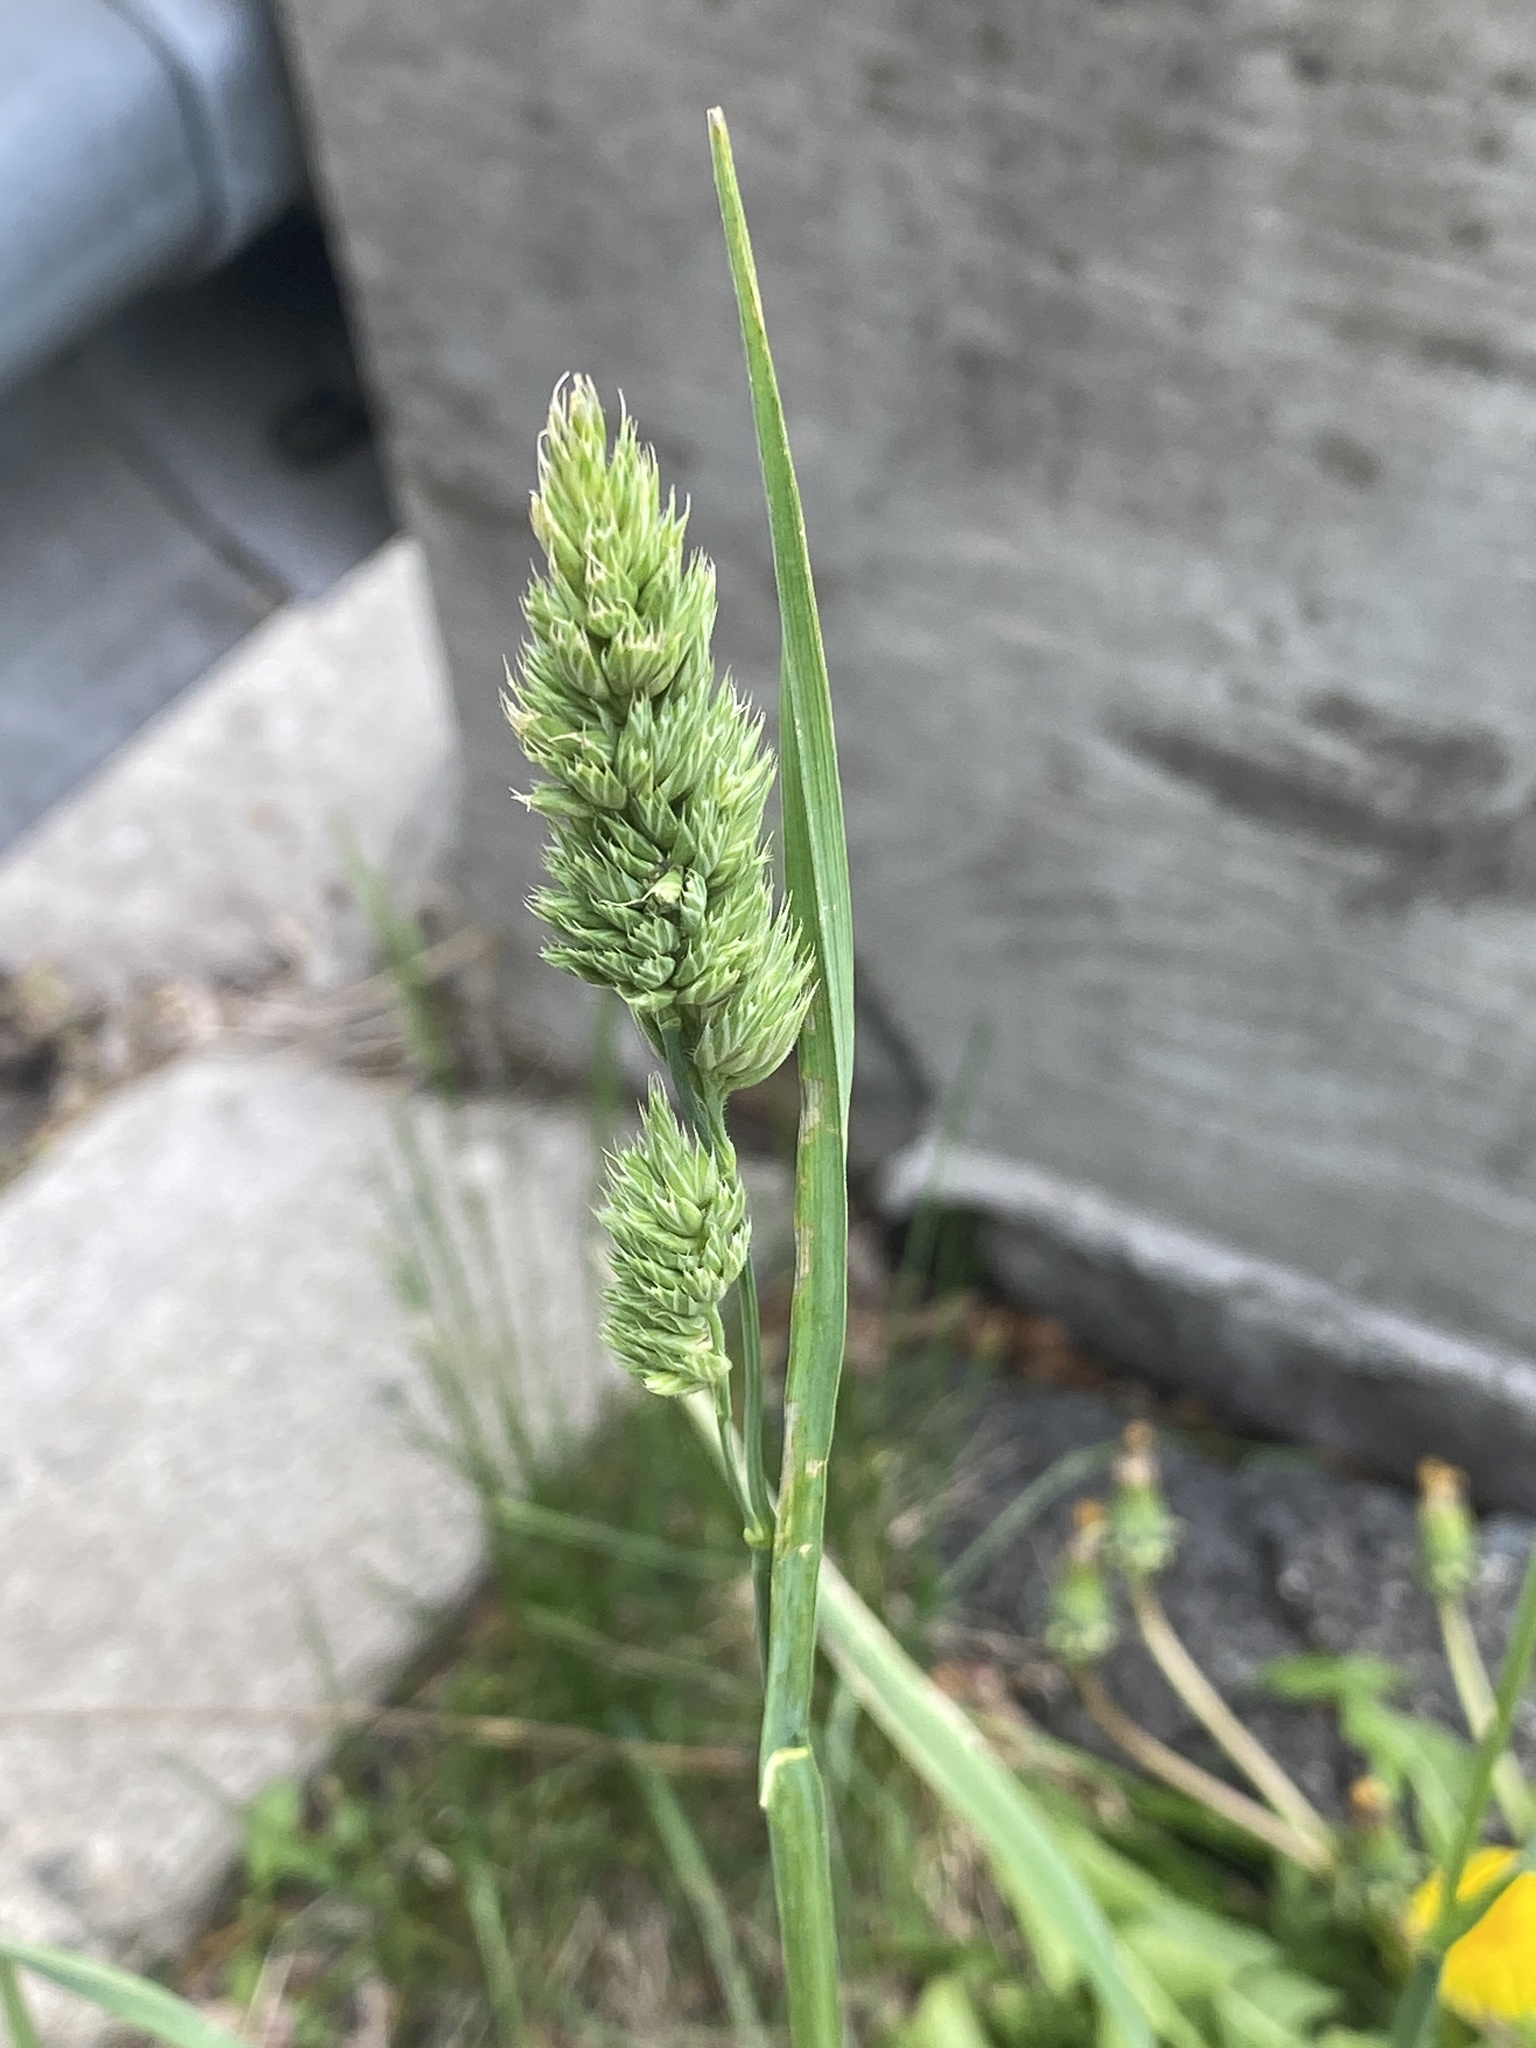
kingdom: Plantae
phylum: Tracheophyta
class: Liliopsida
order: Poales
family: Poaceae
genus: Dactylis
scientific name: Dactylis glomerata
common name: Orchardgrass
